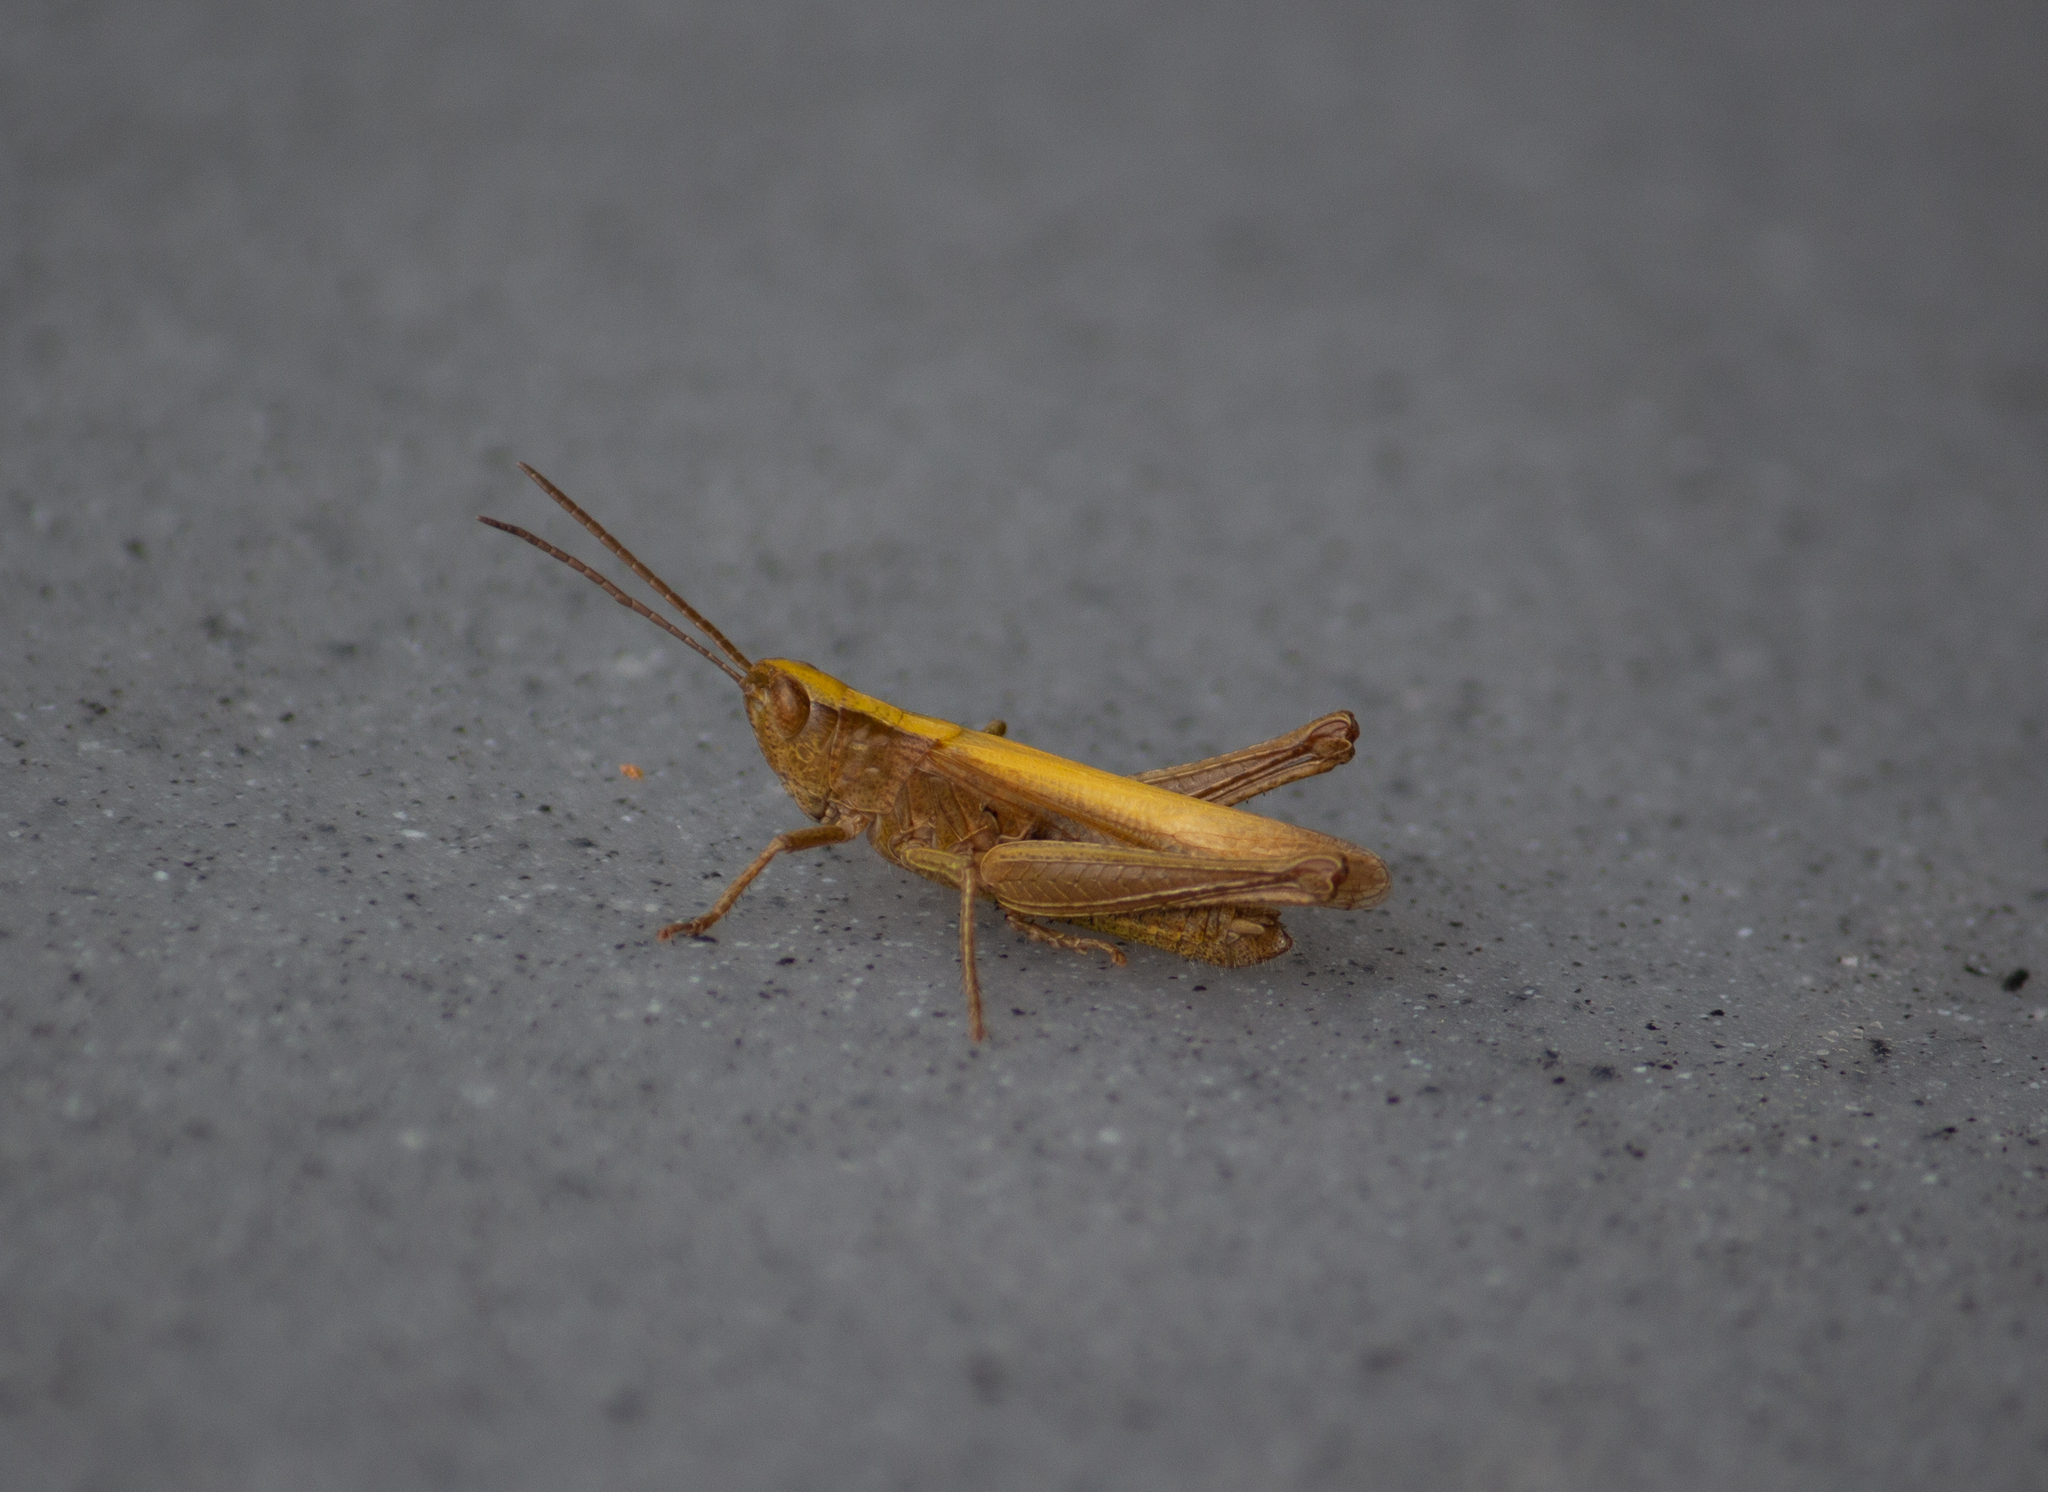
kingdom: Animalia
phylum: Arthropoda
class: Insecta
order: Orthoptera
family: Acrididae
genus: Chorthippus
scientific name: Chorthippus dorsatus
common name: Steppe grasshopper
